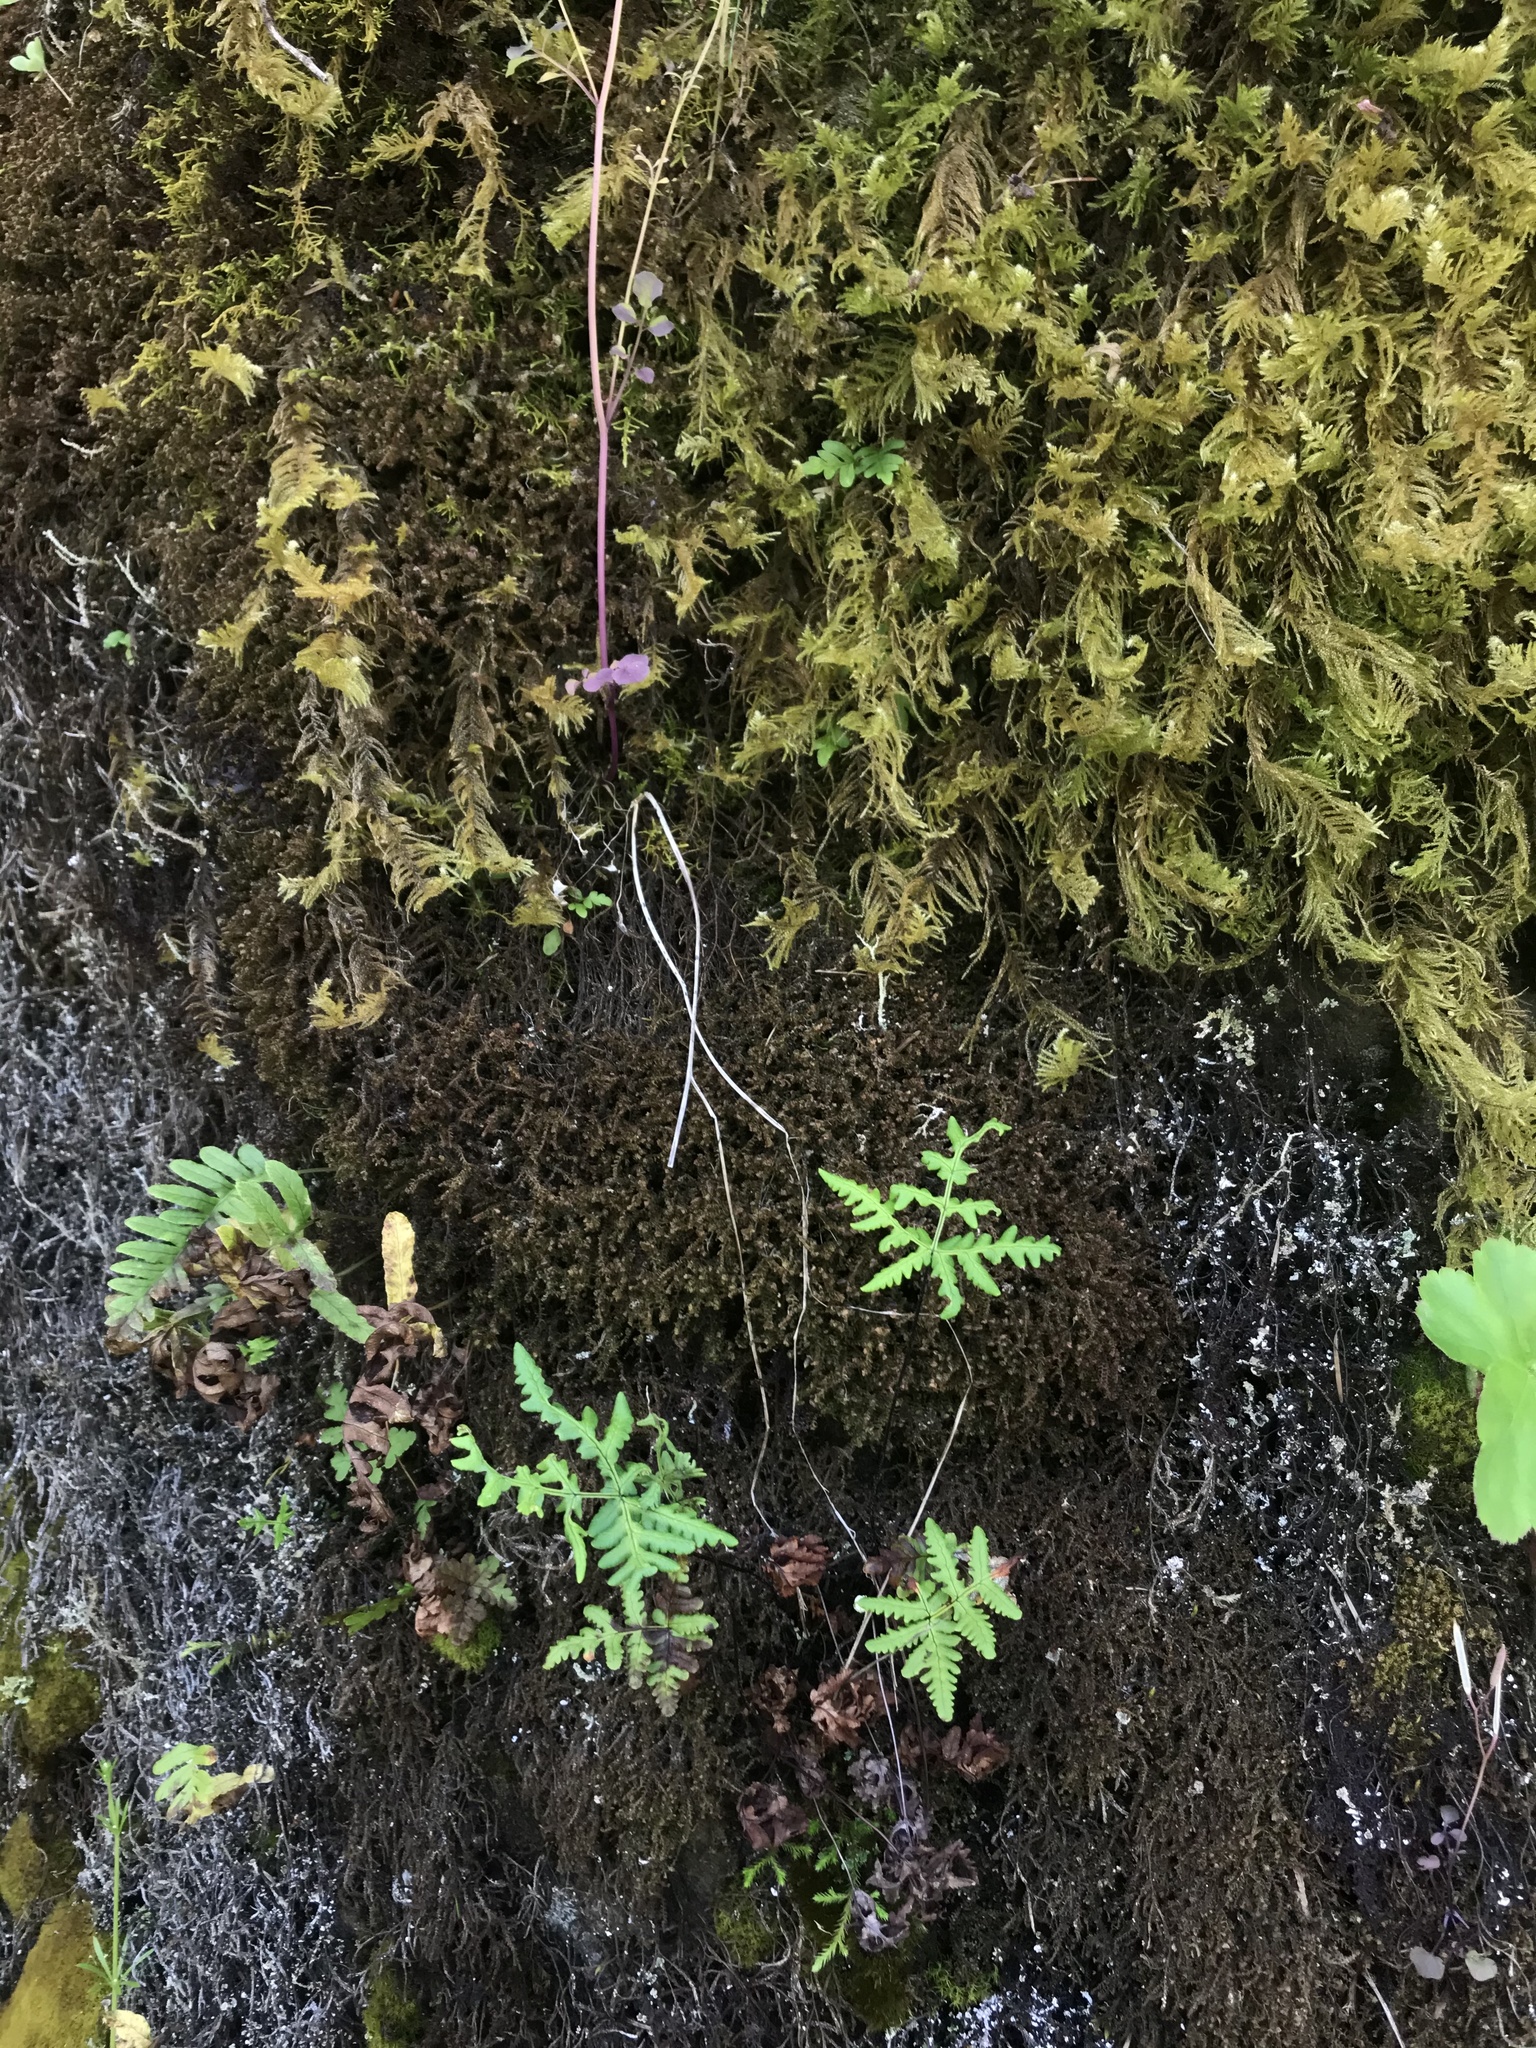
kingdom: Plantae
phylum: Tracheophyta
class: Polypodiopsida
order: Polypodiales
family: Pteridaceae
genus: Pentagramma
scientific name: Pentagramma triangularis
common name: Gold fern
